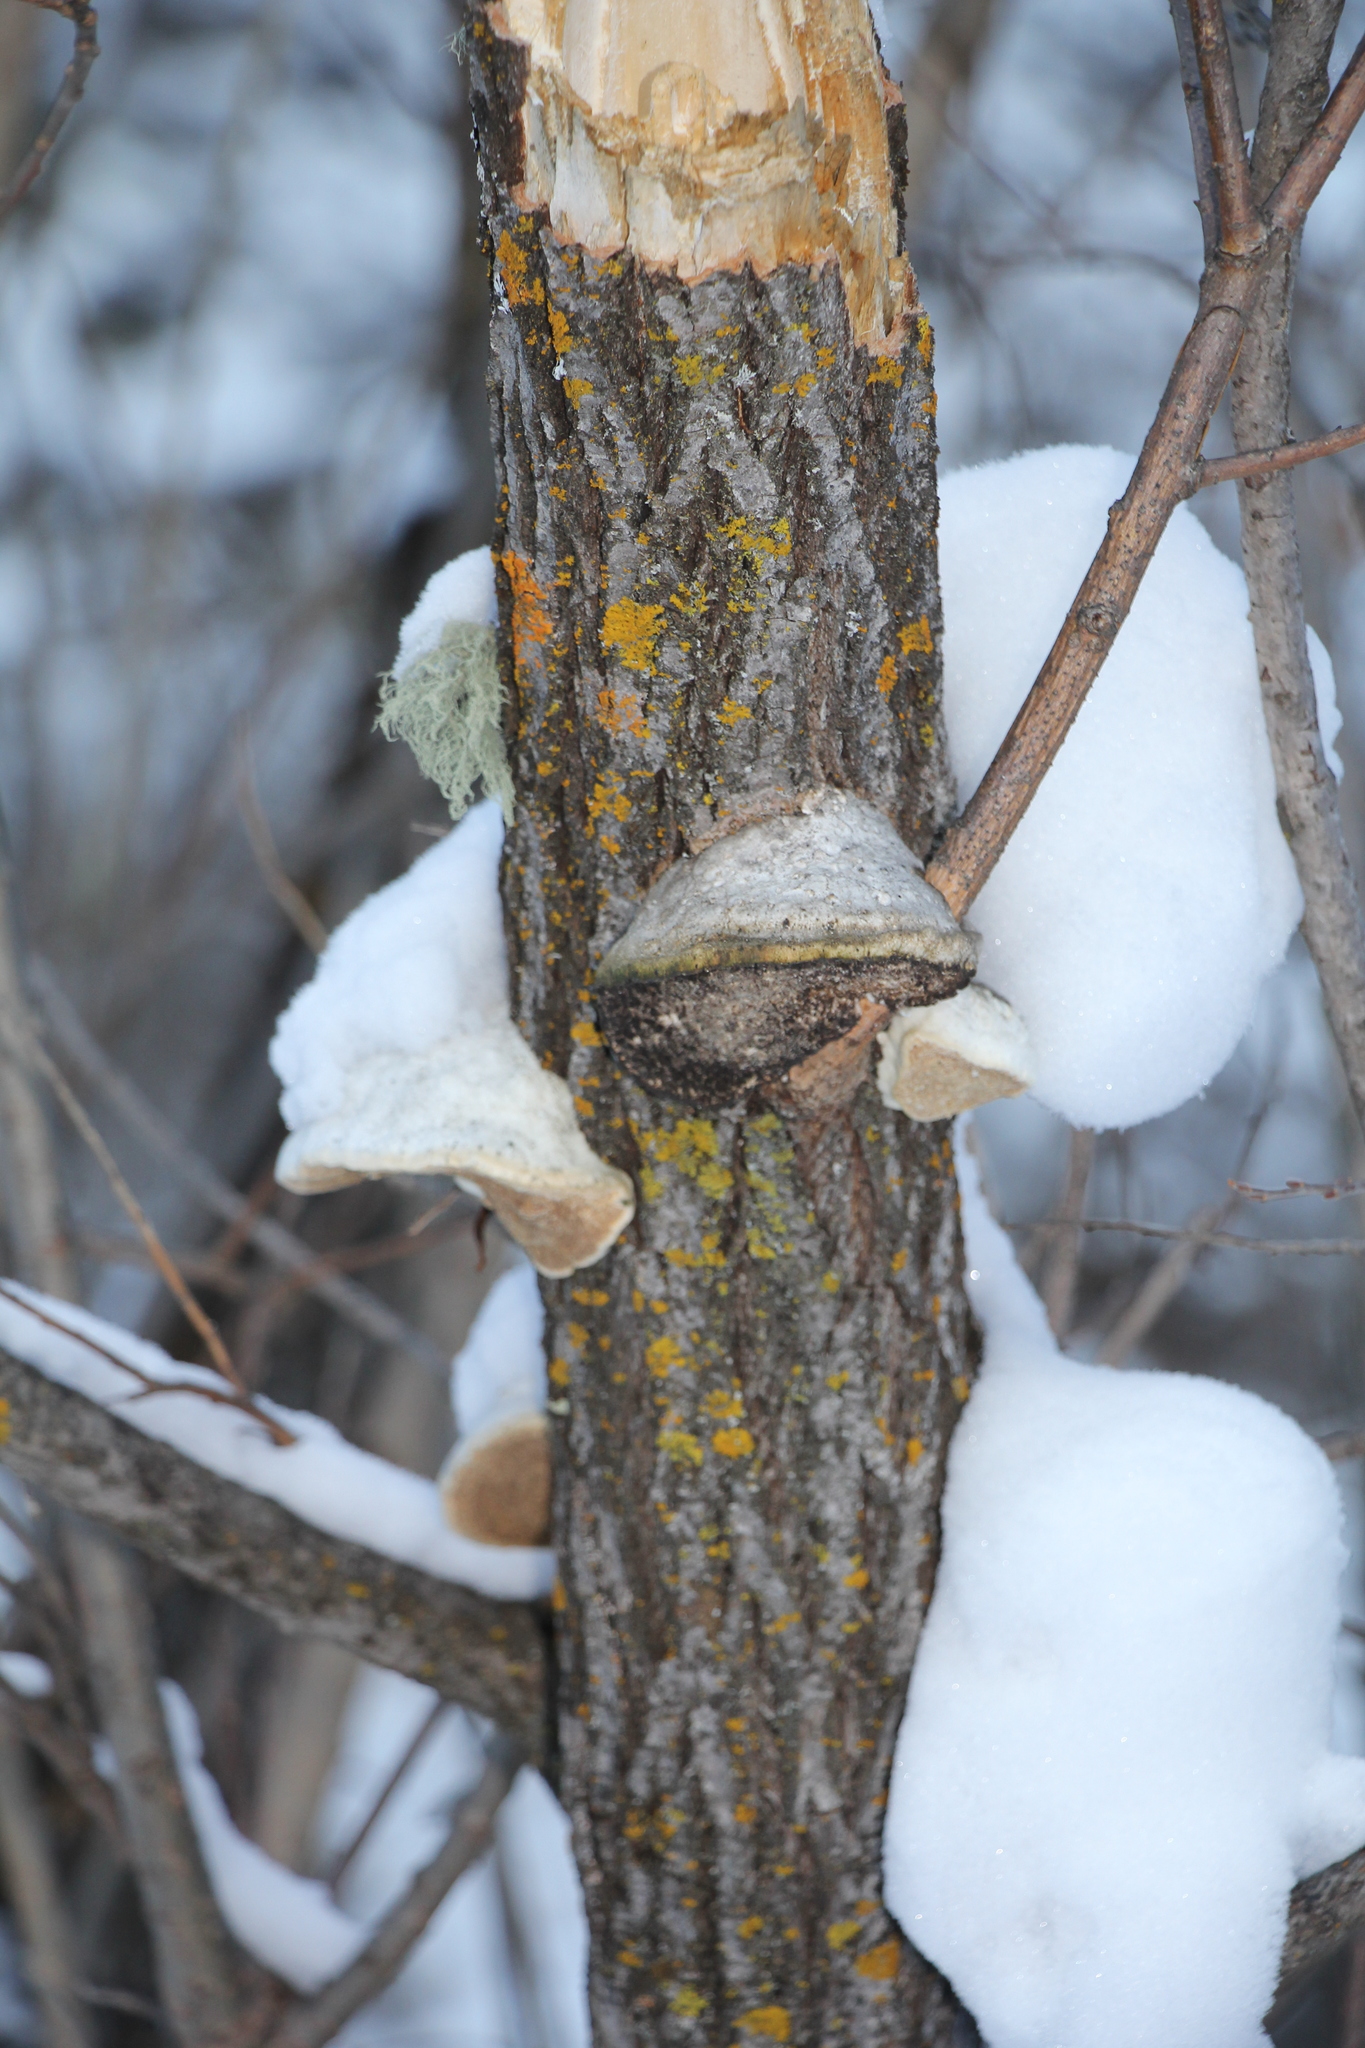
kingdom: Fungi
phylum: Basidiomycota
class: Agaricomycetes
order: Polyporales
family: Polyporaceae
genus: Trametes
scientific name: Trametes suaveolens
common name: Fragrant bracket
